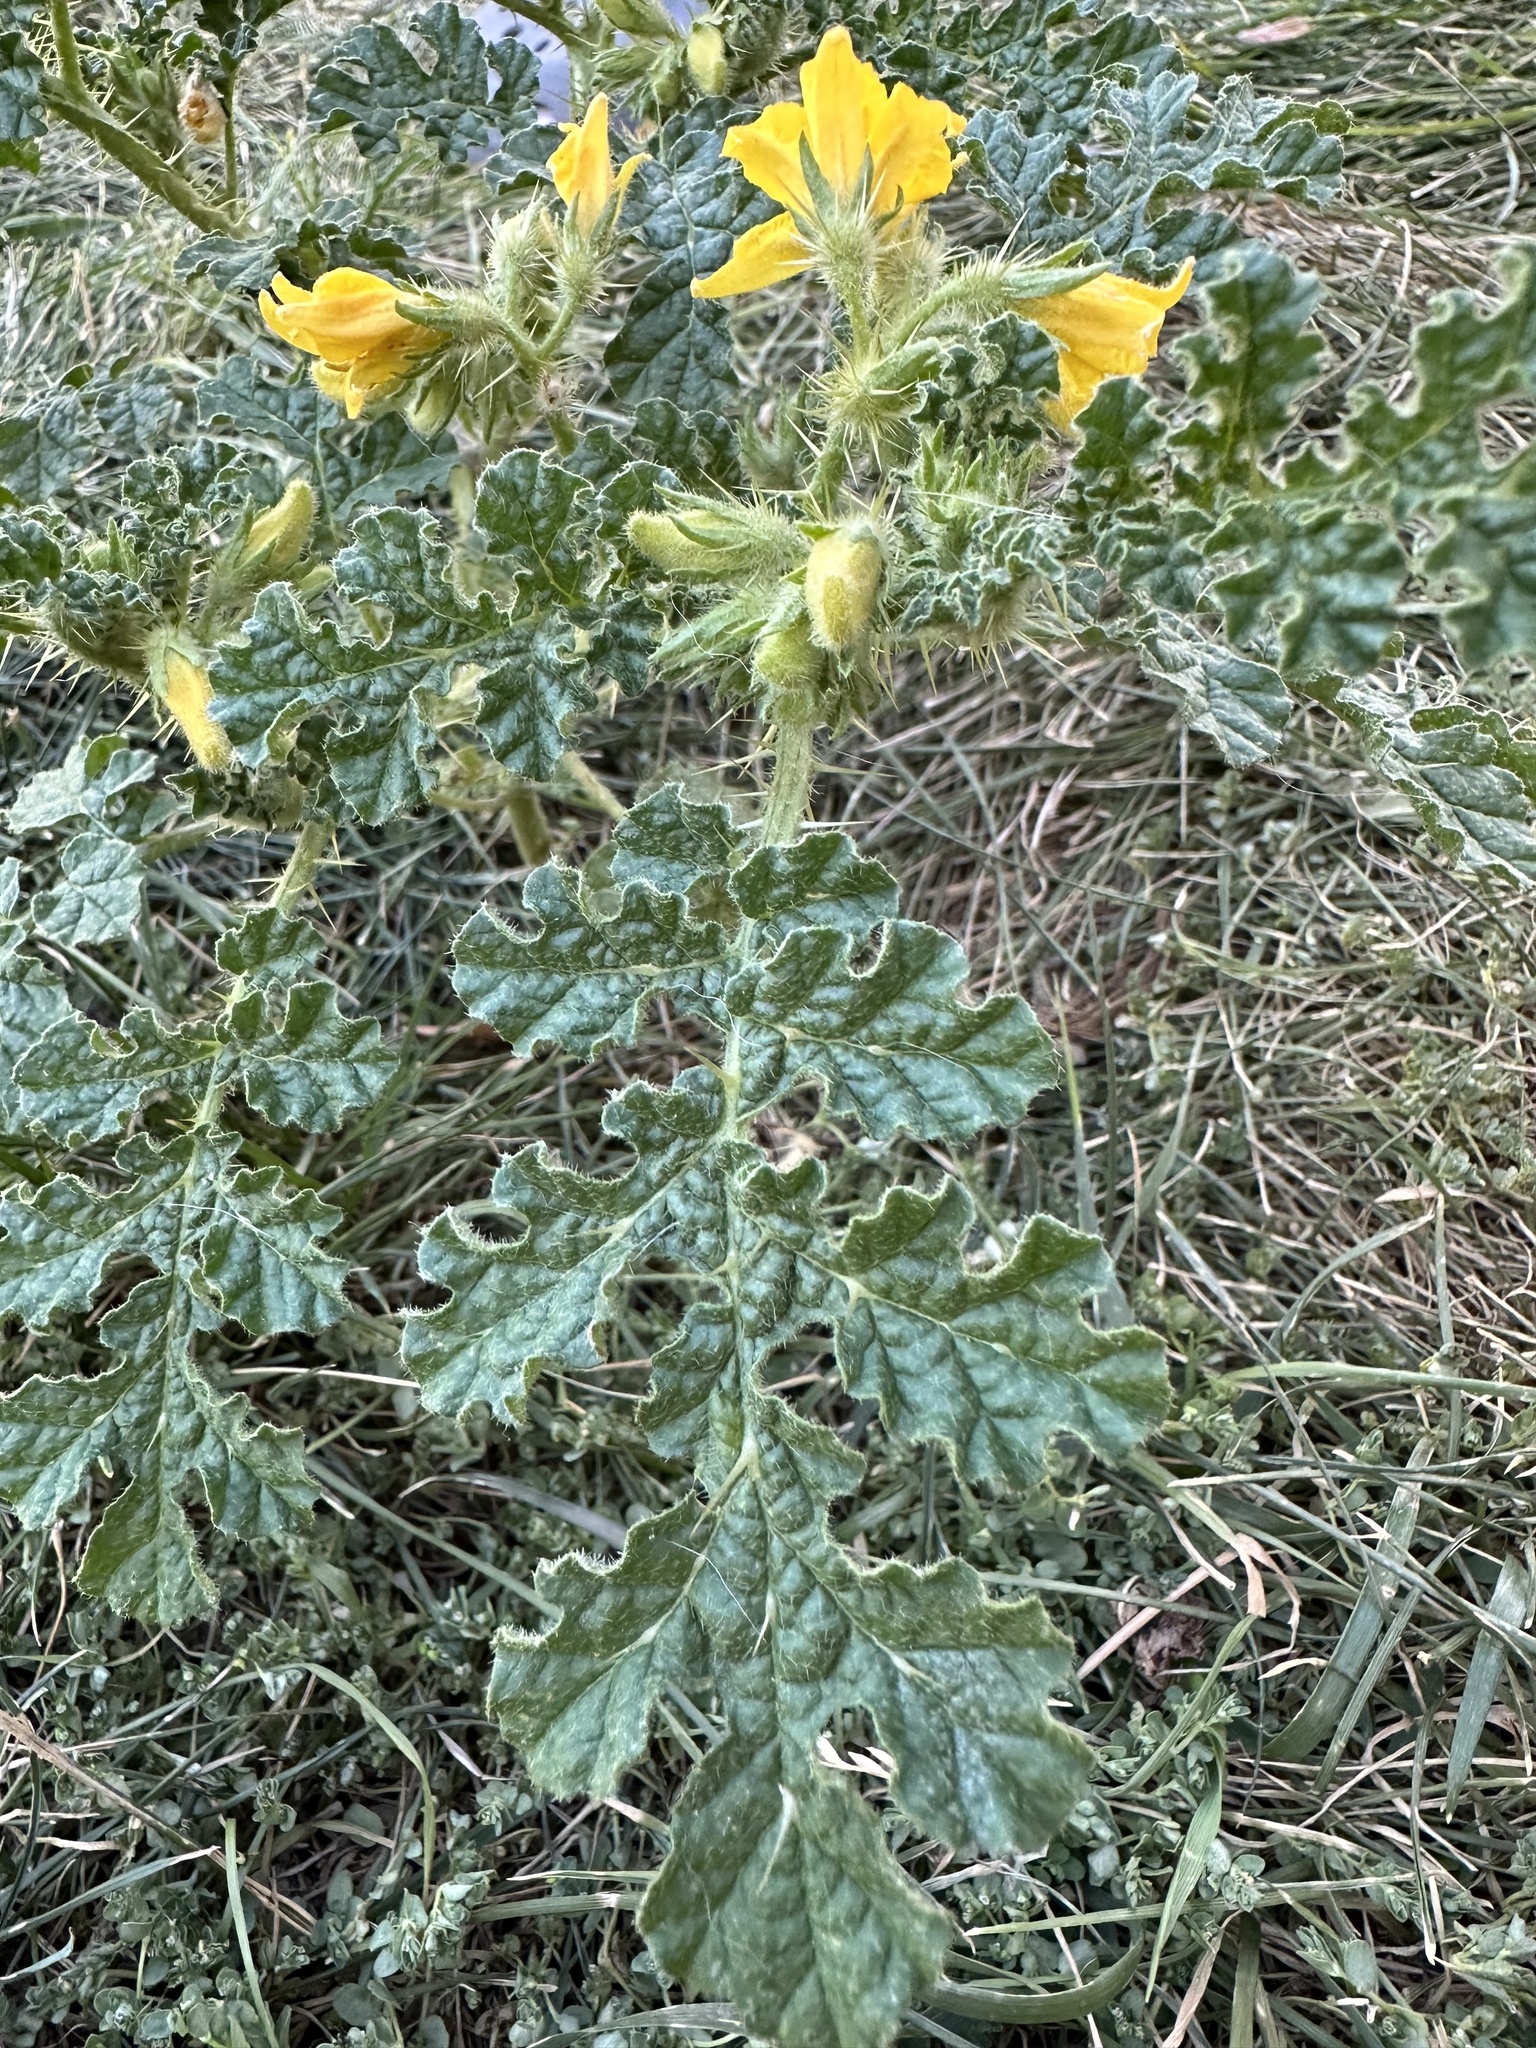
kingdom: Plantae
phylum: Tracheophyta
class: Magnoliopsida
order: Solanales
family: Solanaceae
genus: Solanum
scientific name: Solanum angustifolium
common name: Buffalobur nightshade
